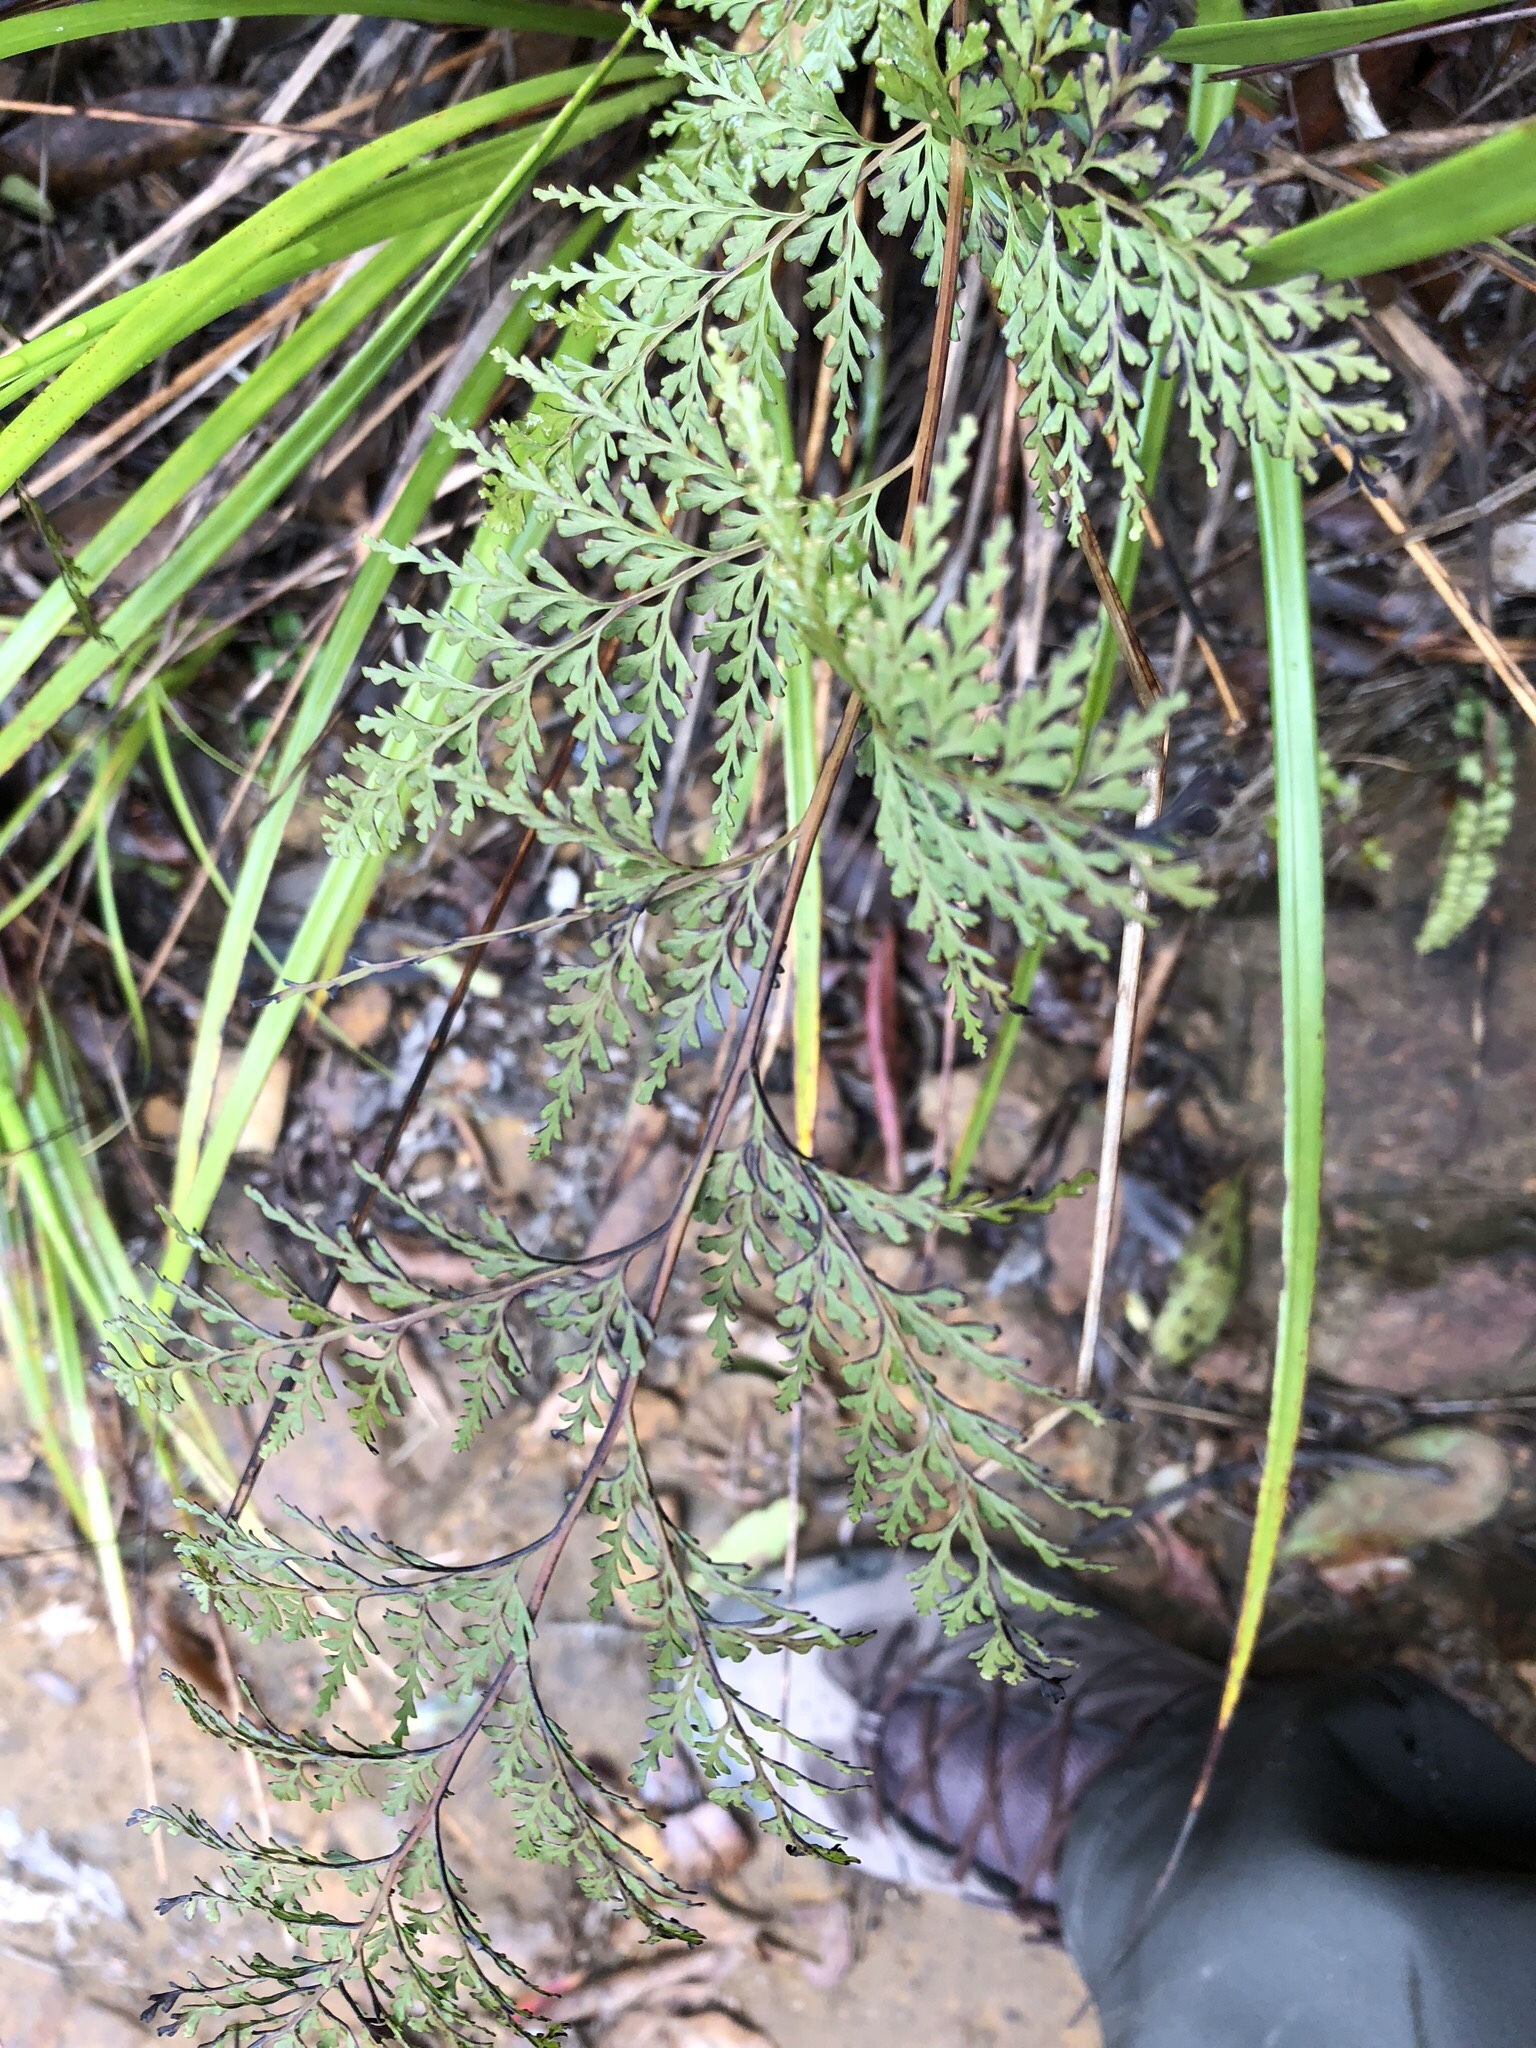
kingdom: Plantae
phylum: Tracheophyta
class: Polypodiopsida
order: Polypodiales
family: Lindsaeaceae
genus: Odontosoria
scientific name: Odontosoria chinensis
